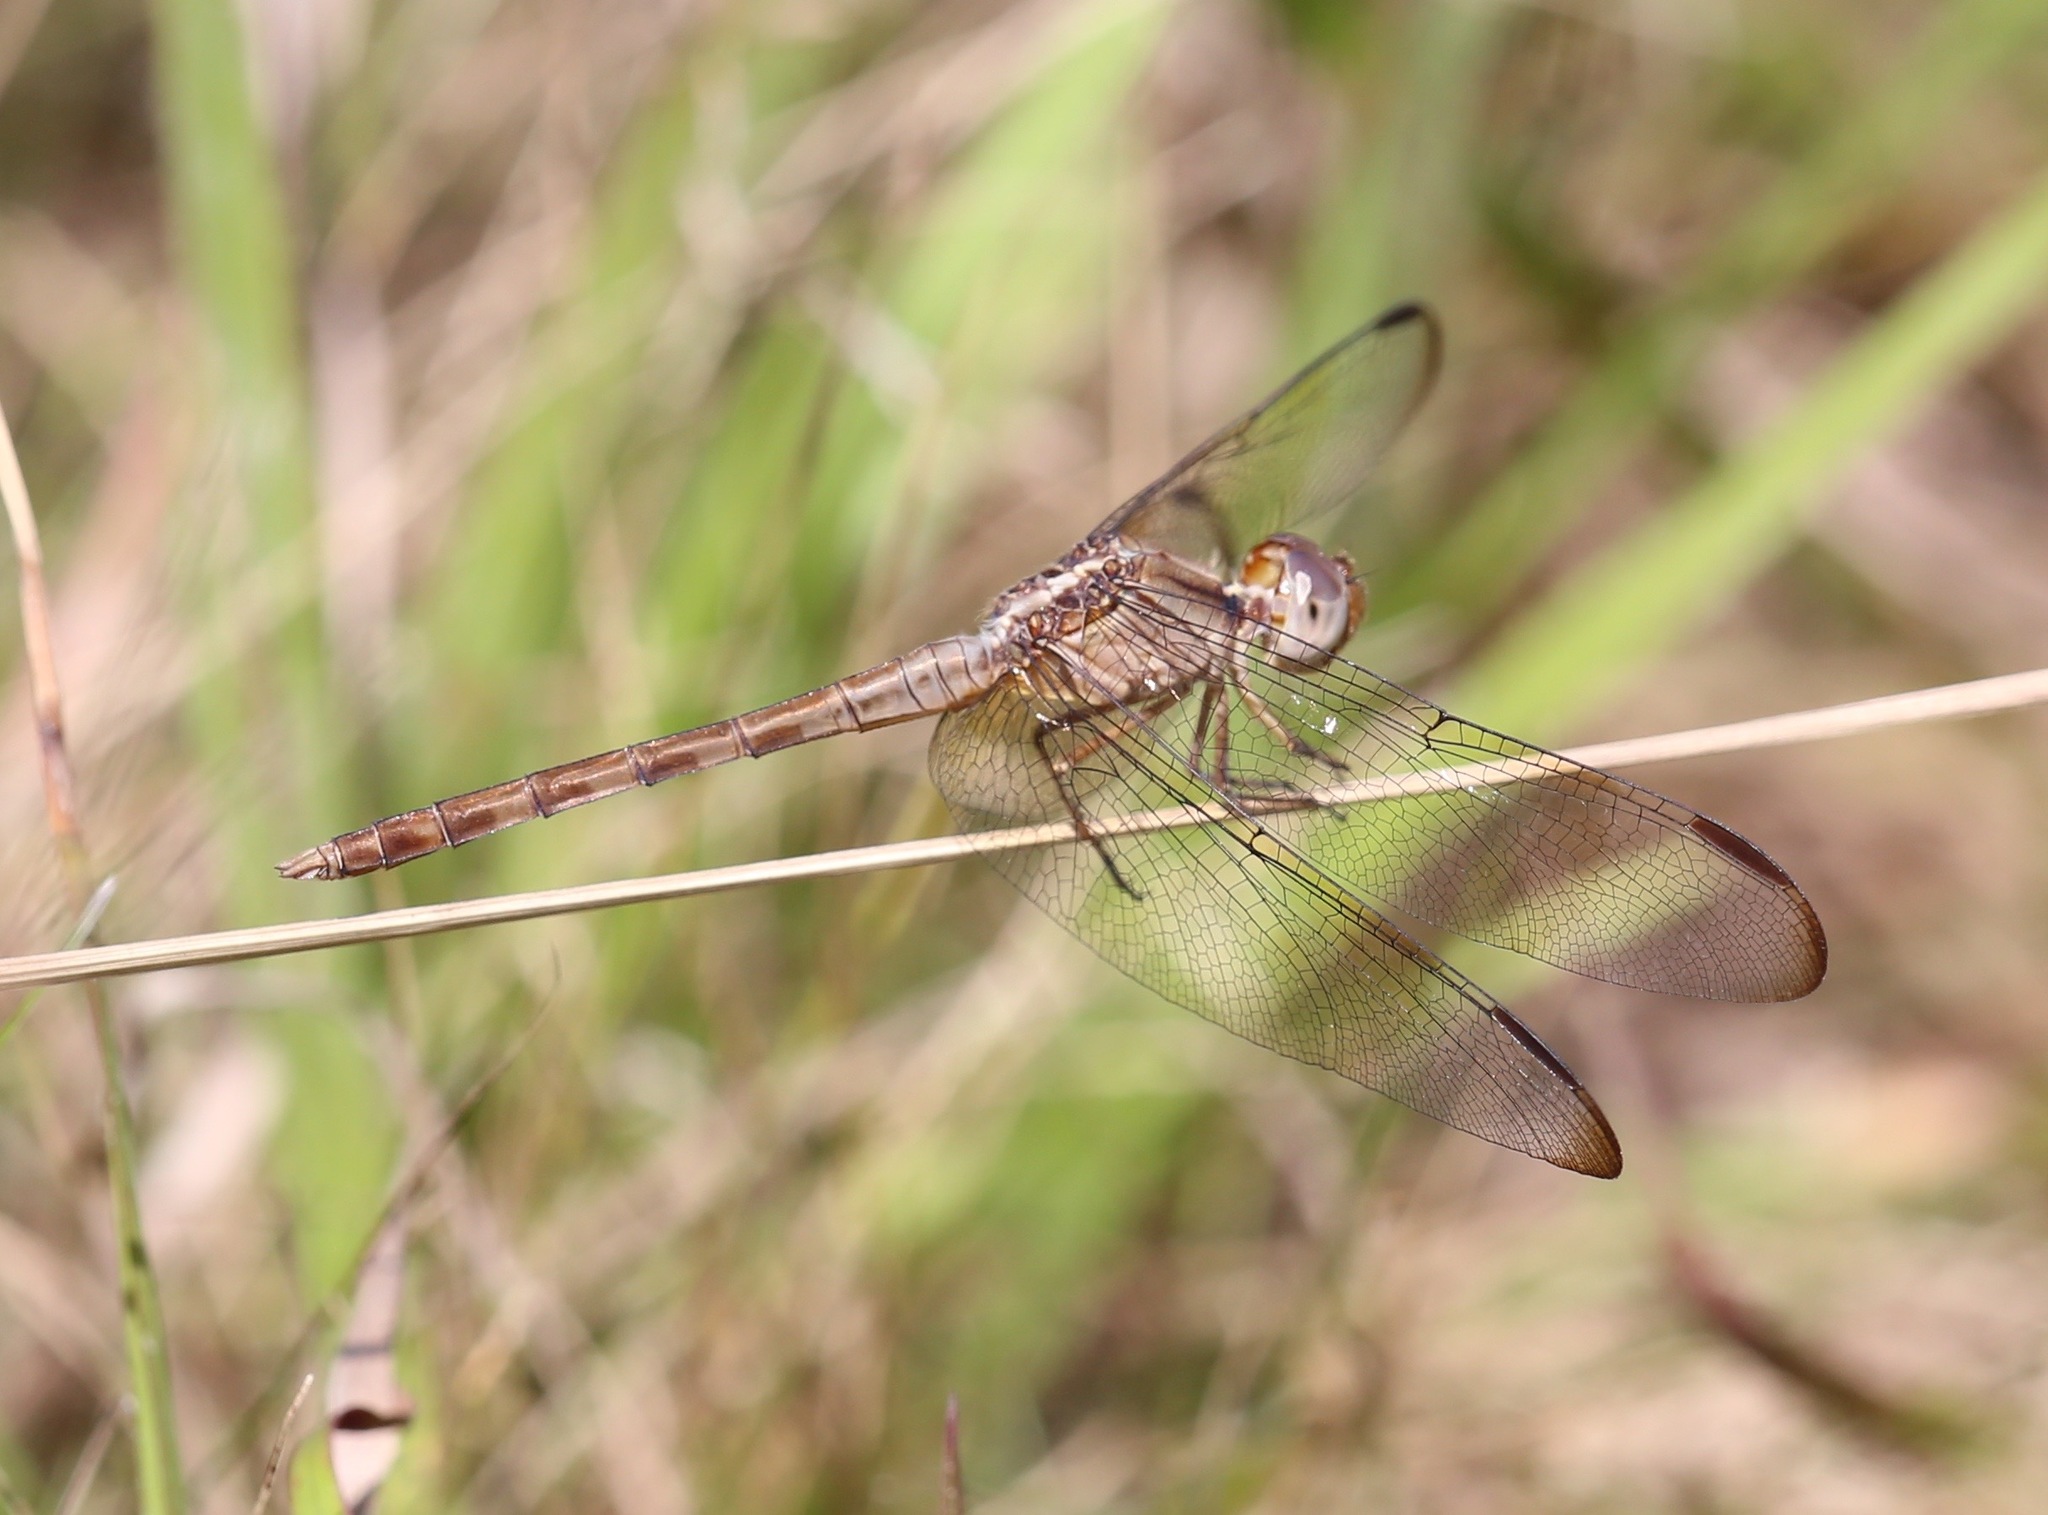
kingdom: Animalia
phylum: Arthropoda
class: Insecta
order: Odonata
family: Libellulidae
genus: Erythrodiplax
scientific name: Erythrodiplax funerea
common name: Black-winged dragonlet
